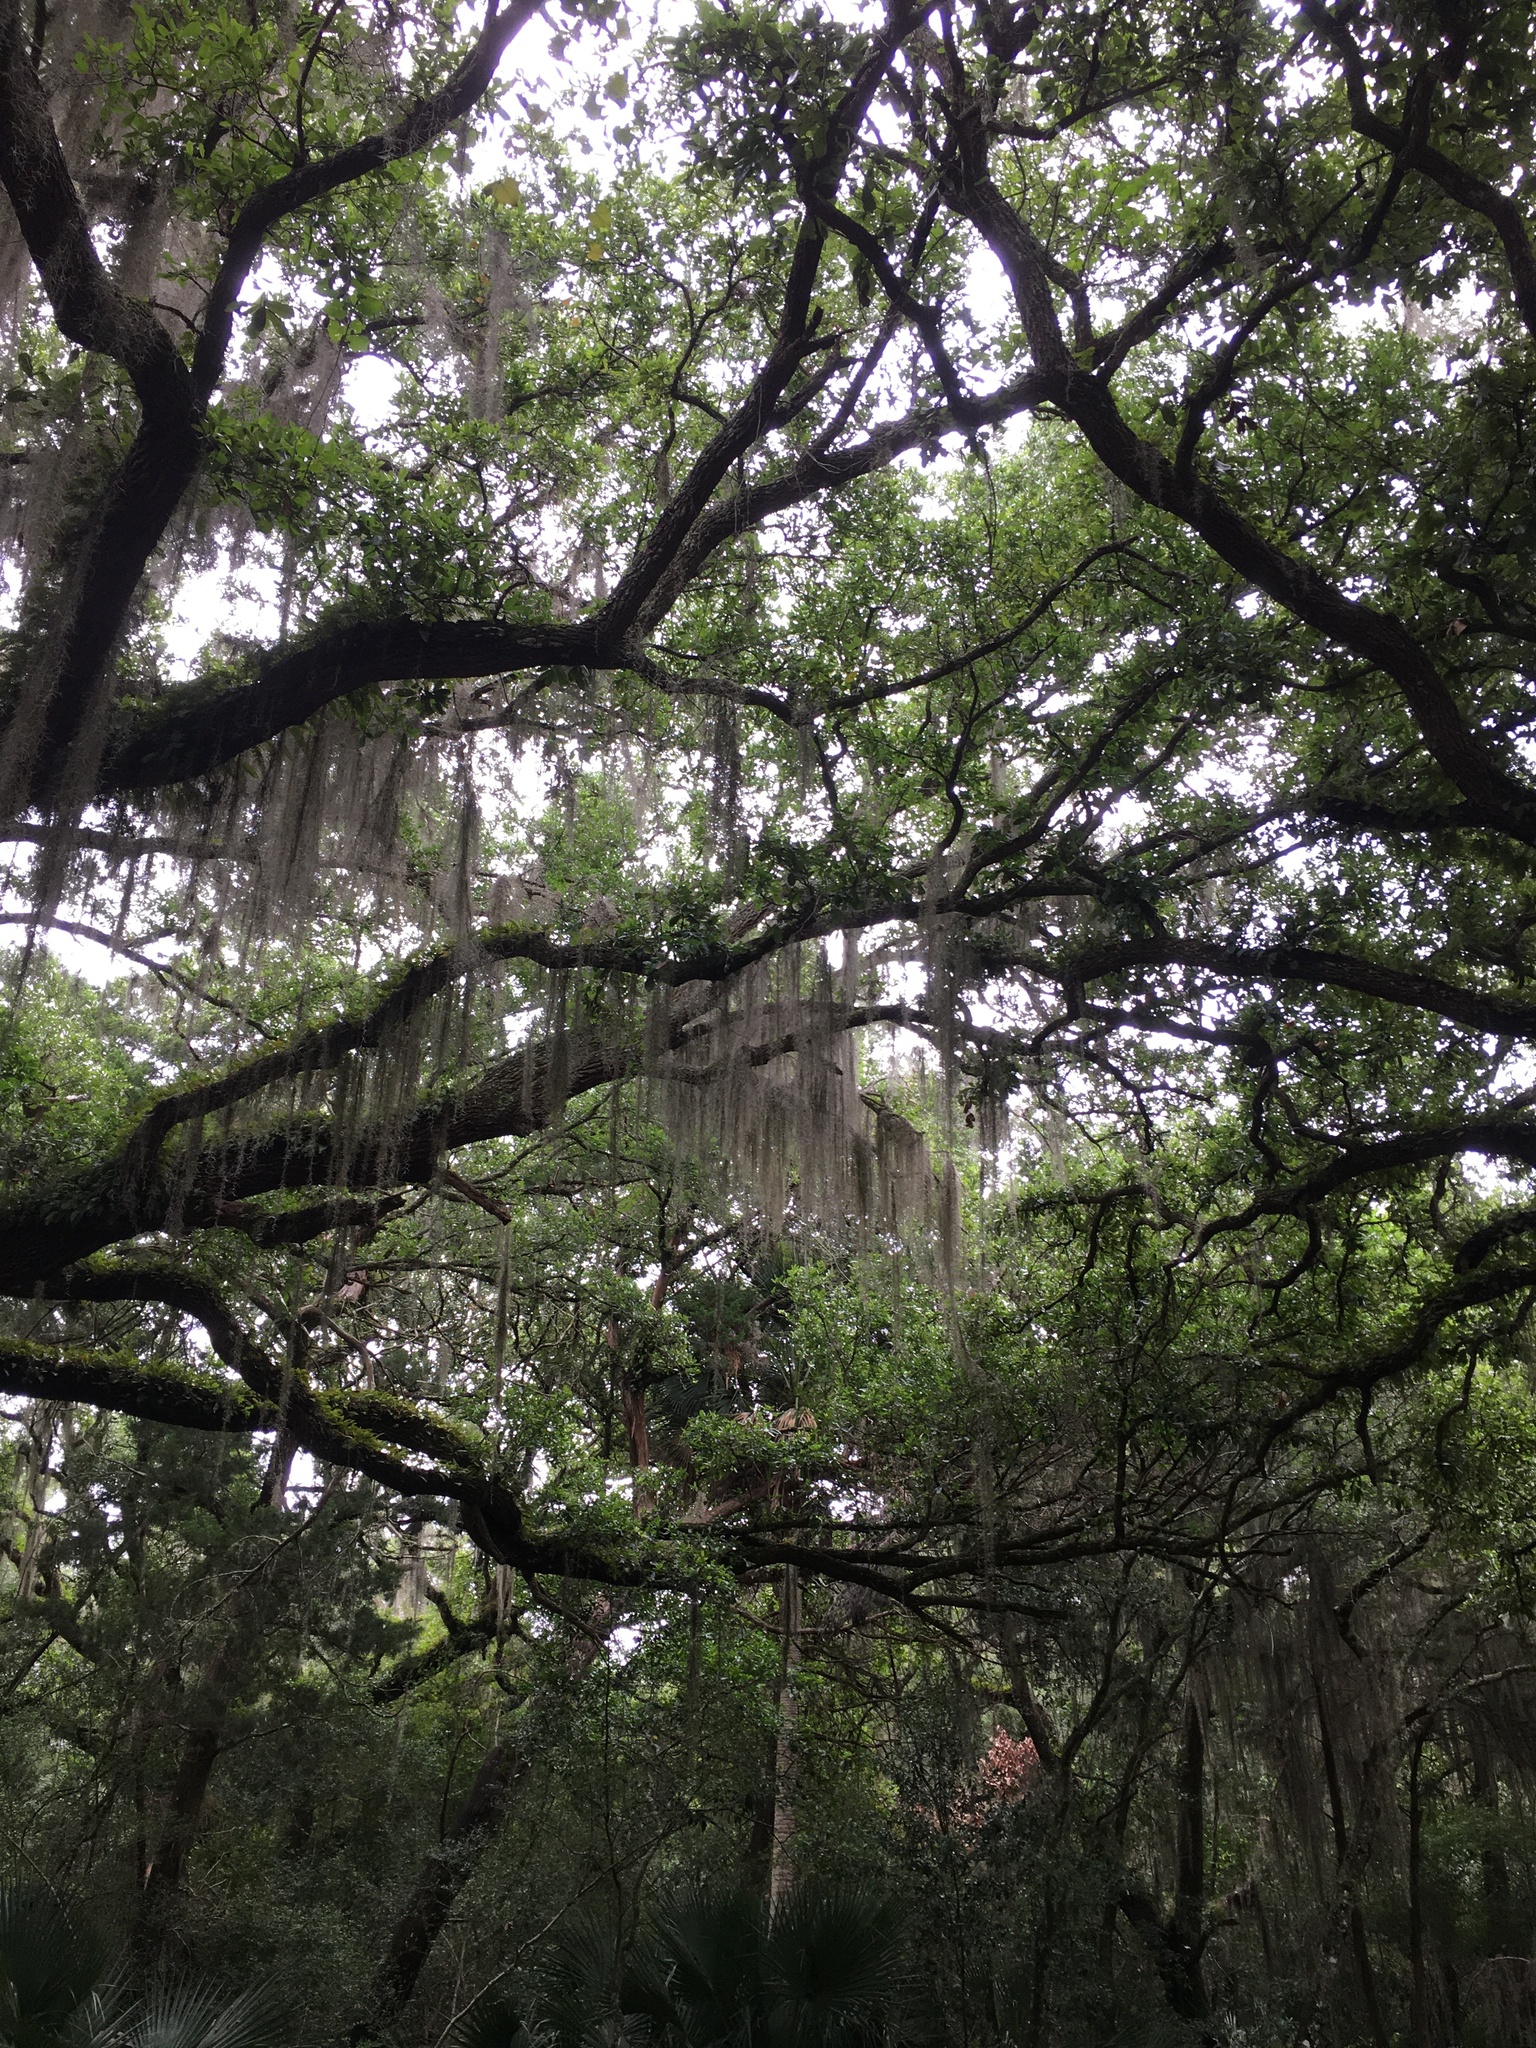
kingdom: Plantae
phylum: Tracheophyta
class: Magnoliopsida
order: Fagales
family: Fagaceae
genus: Quercus
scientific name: Quercus virginiana
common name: Southern live oak
